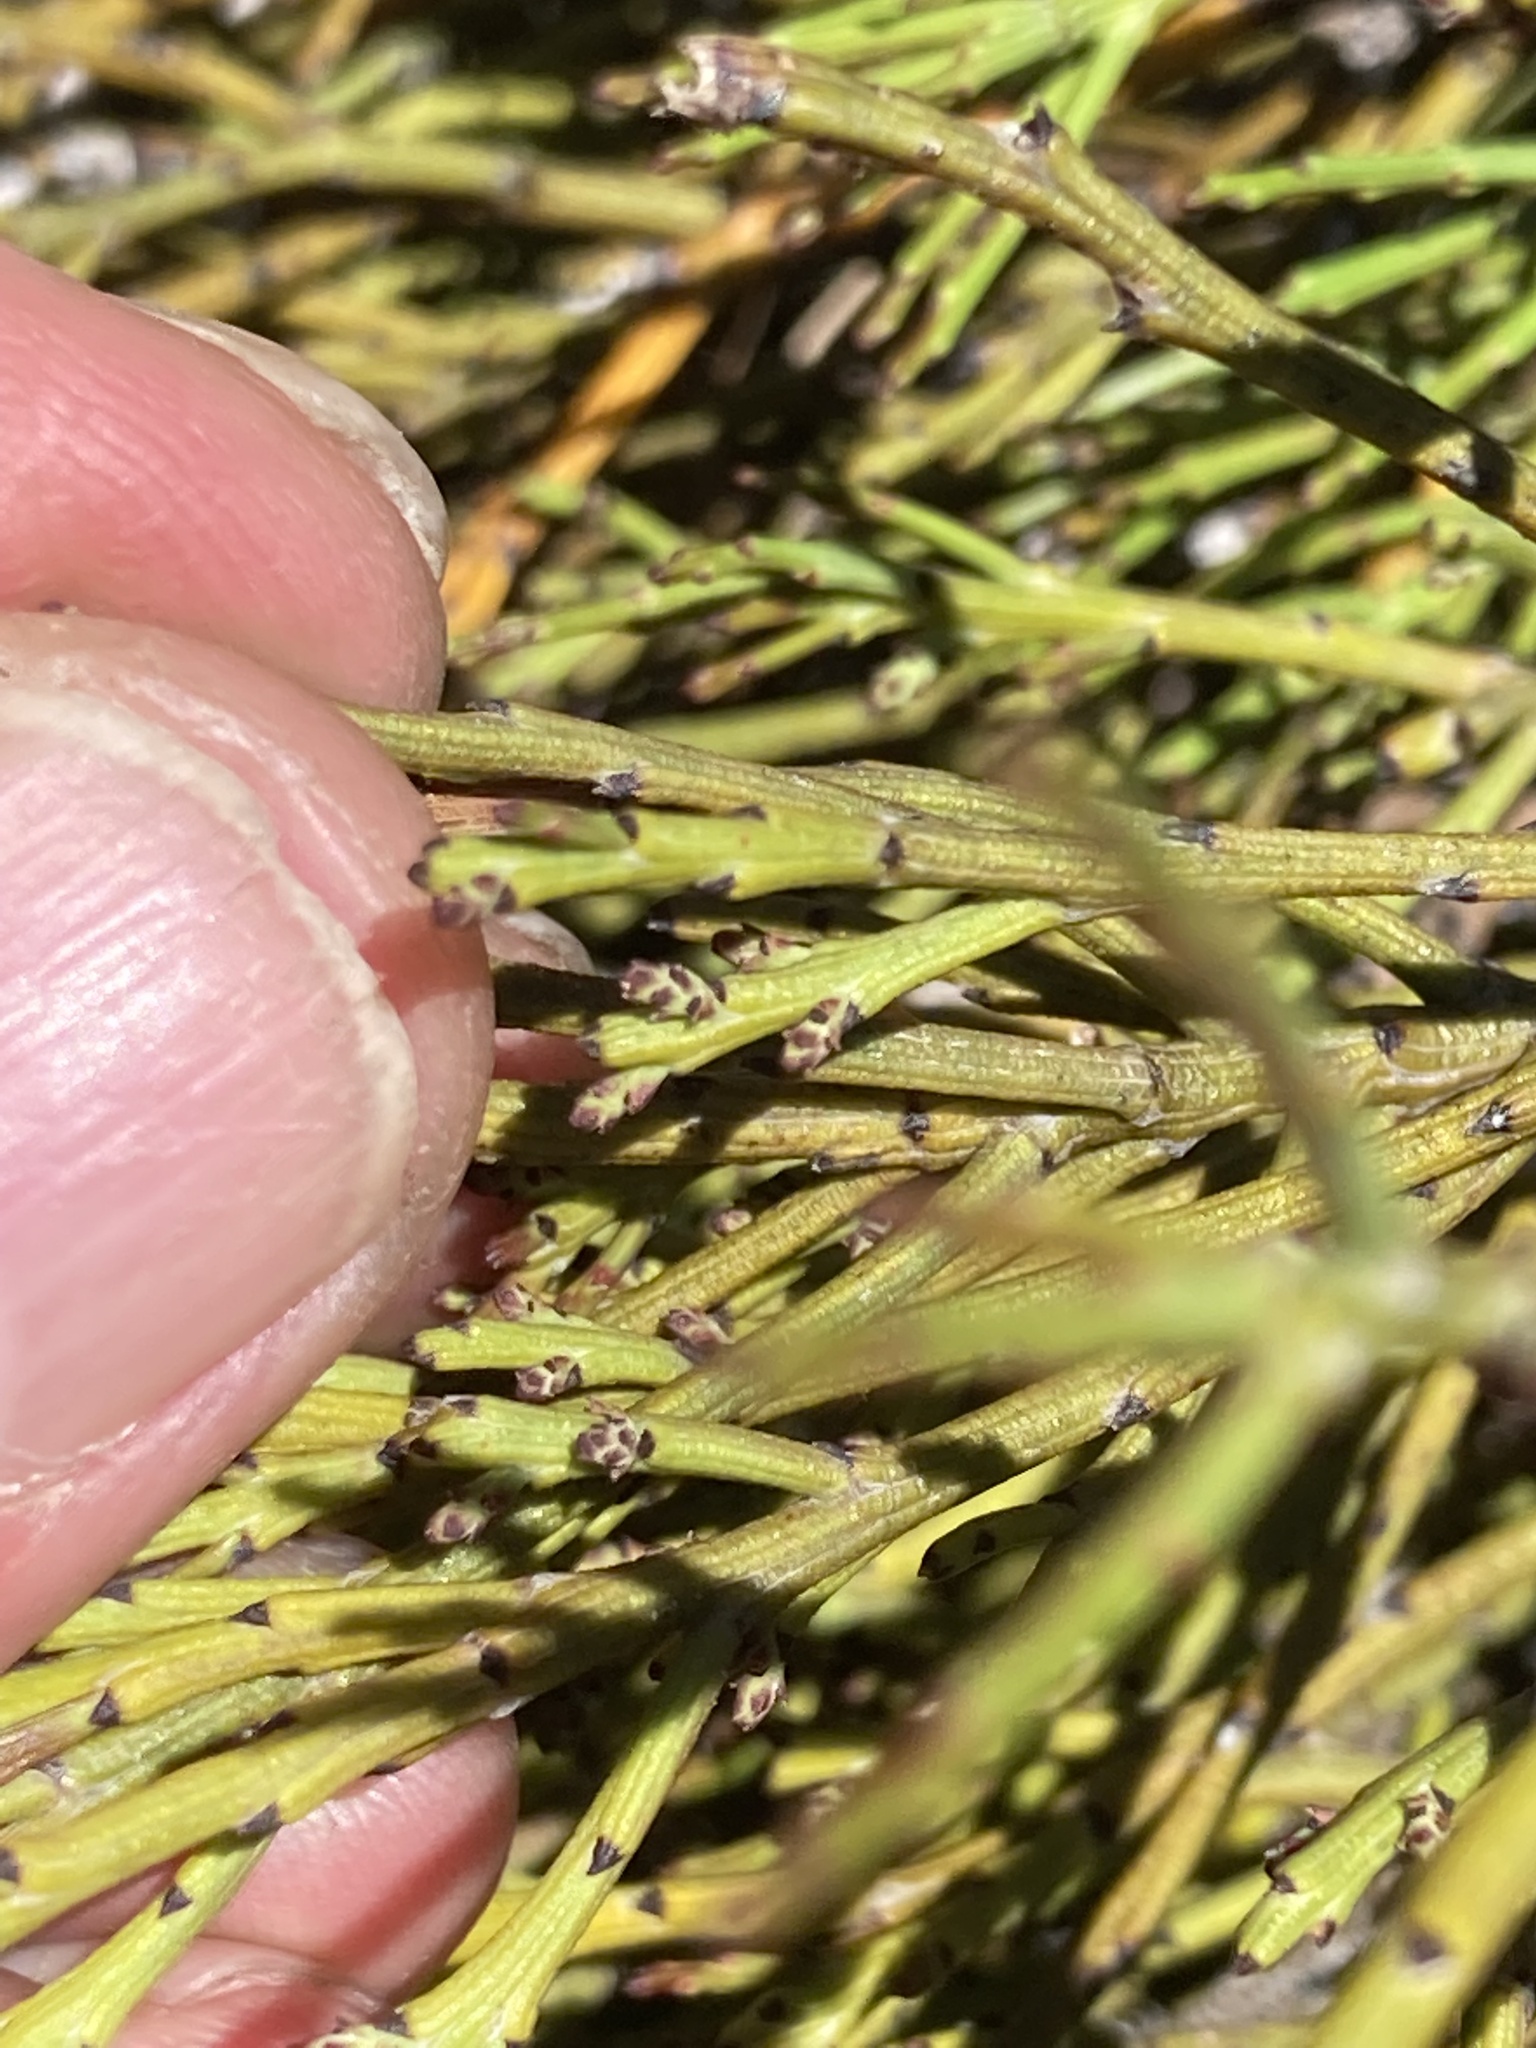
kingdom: Plantae
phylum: Tracheophyta
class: Magnoliopsida
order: Santalales
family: Santalaceae
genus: Exocarpos
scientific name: Exocarpos bidwillii
